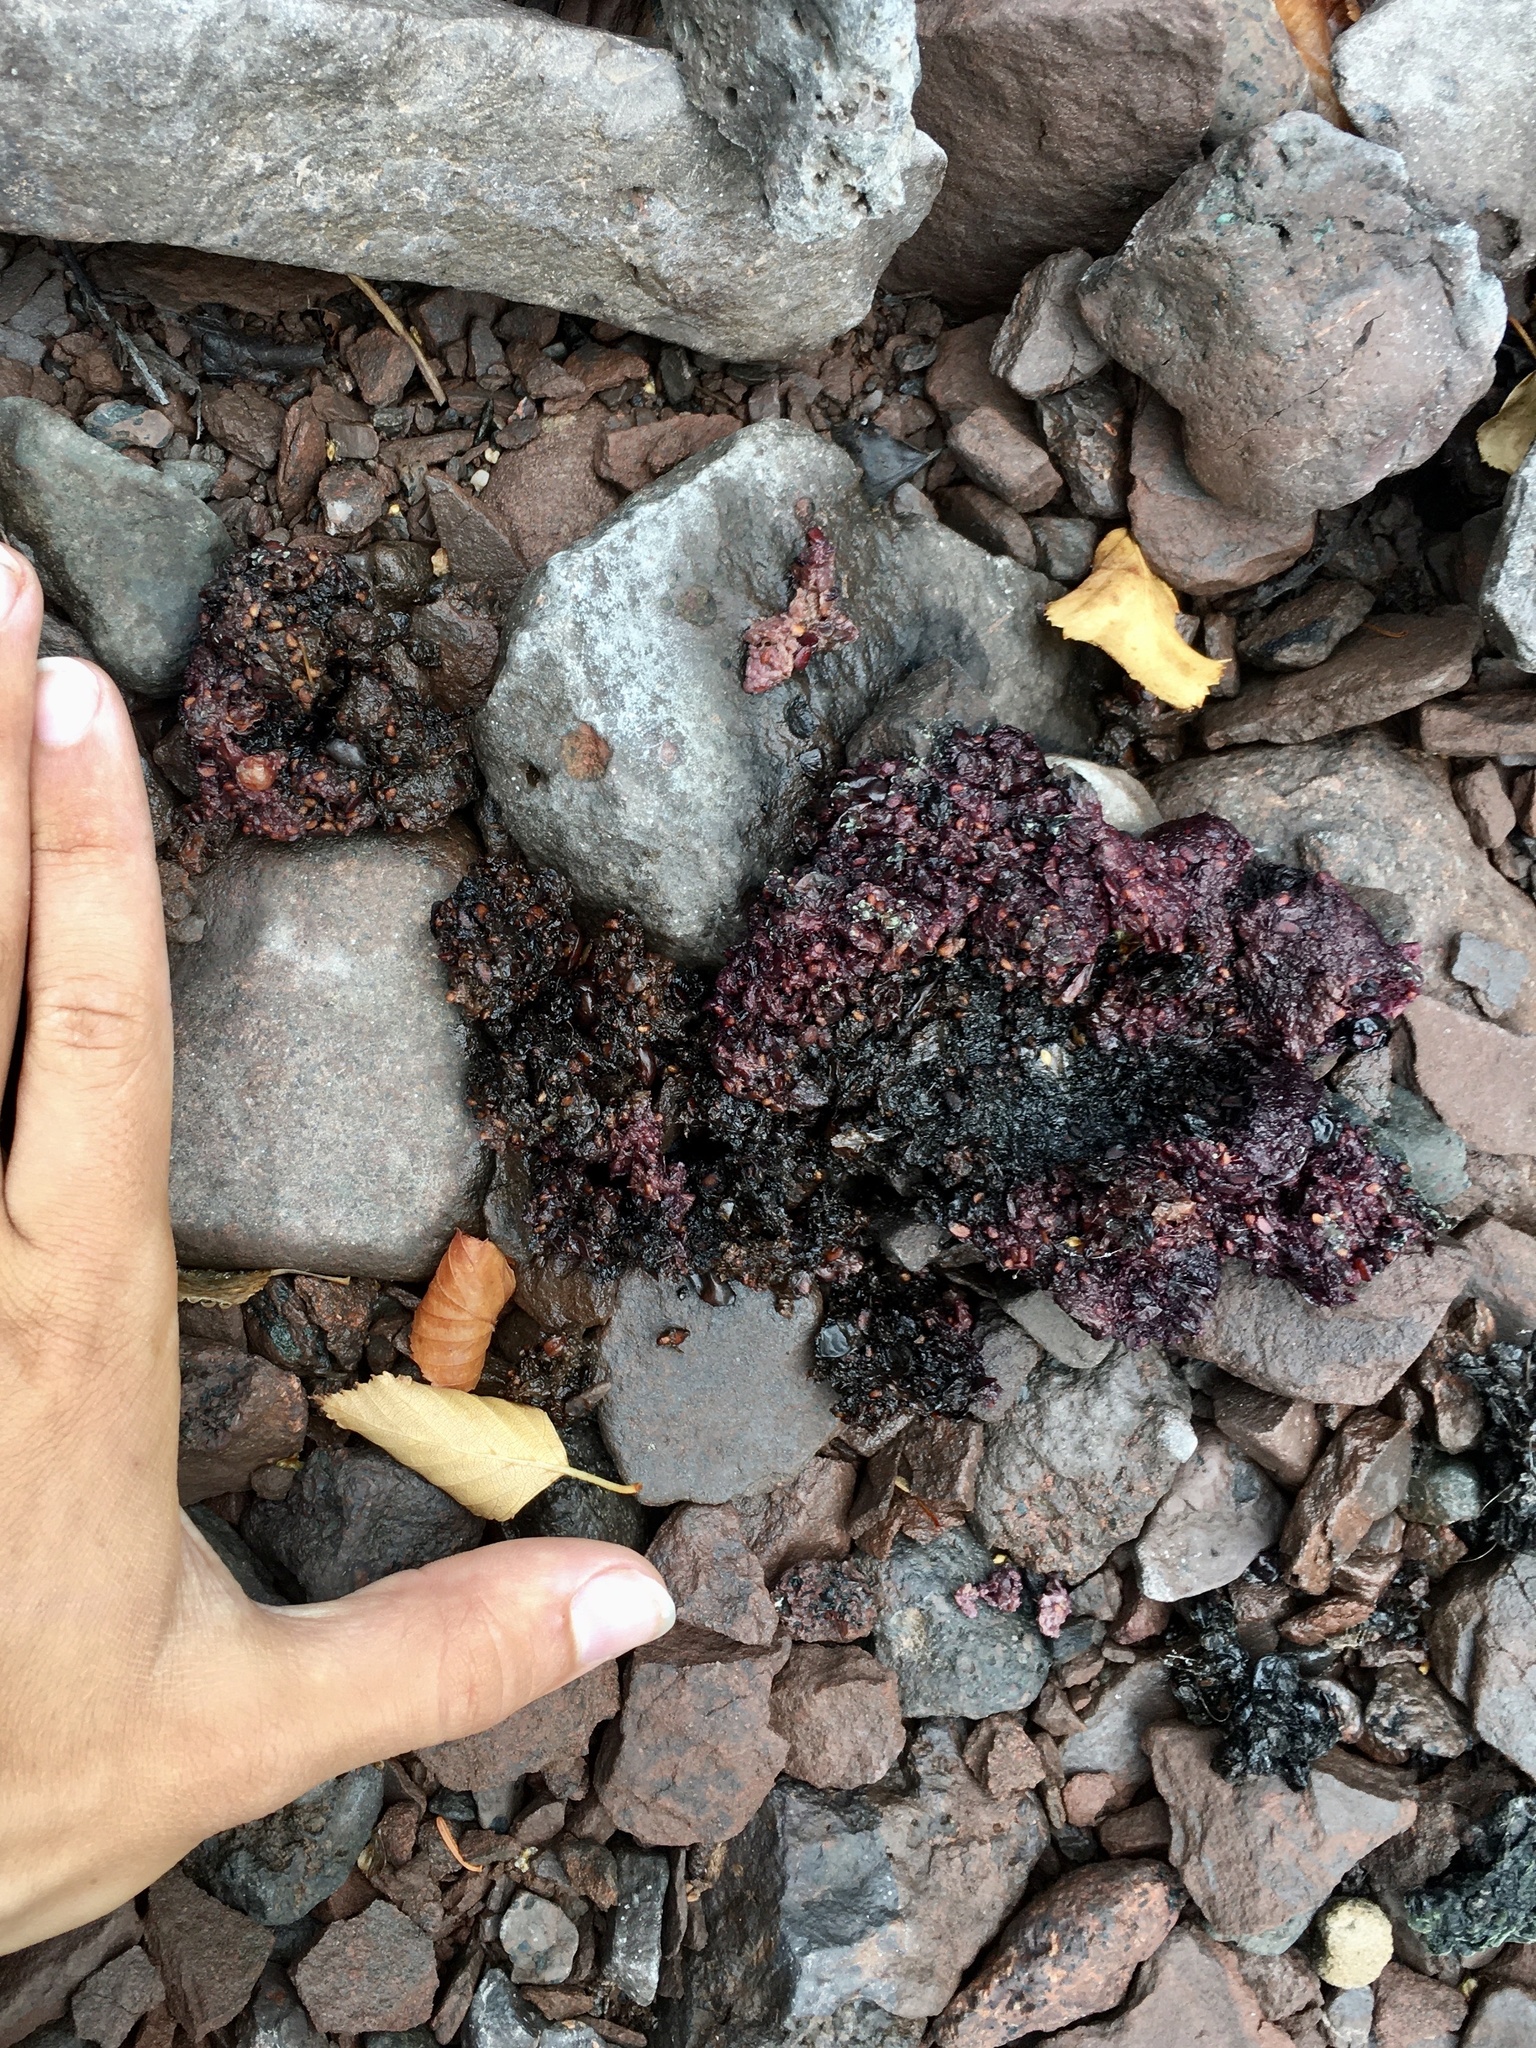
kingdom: Animalia
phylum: Chordata
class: Mammalia
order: Carnivora
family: Ursidae
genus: Ursus
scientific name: Ursus americanus
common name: American black bear
